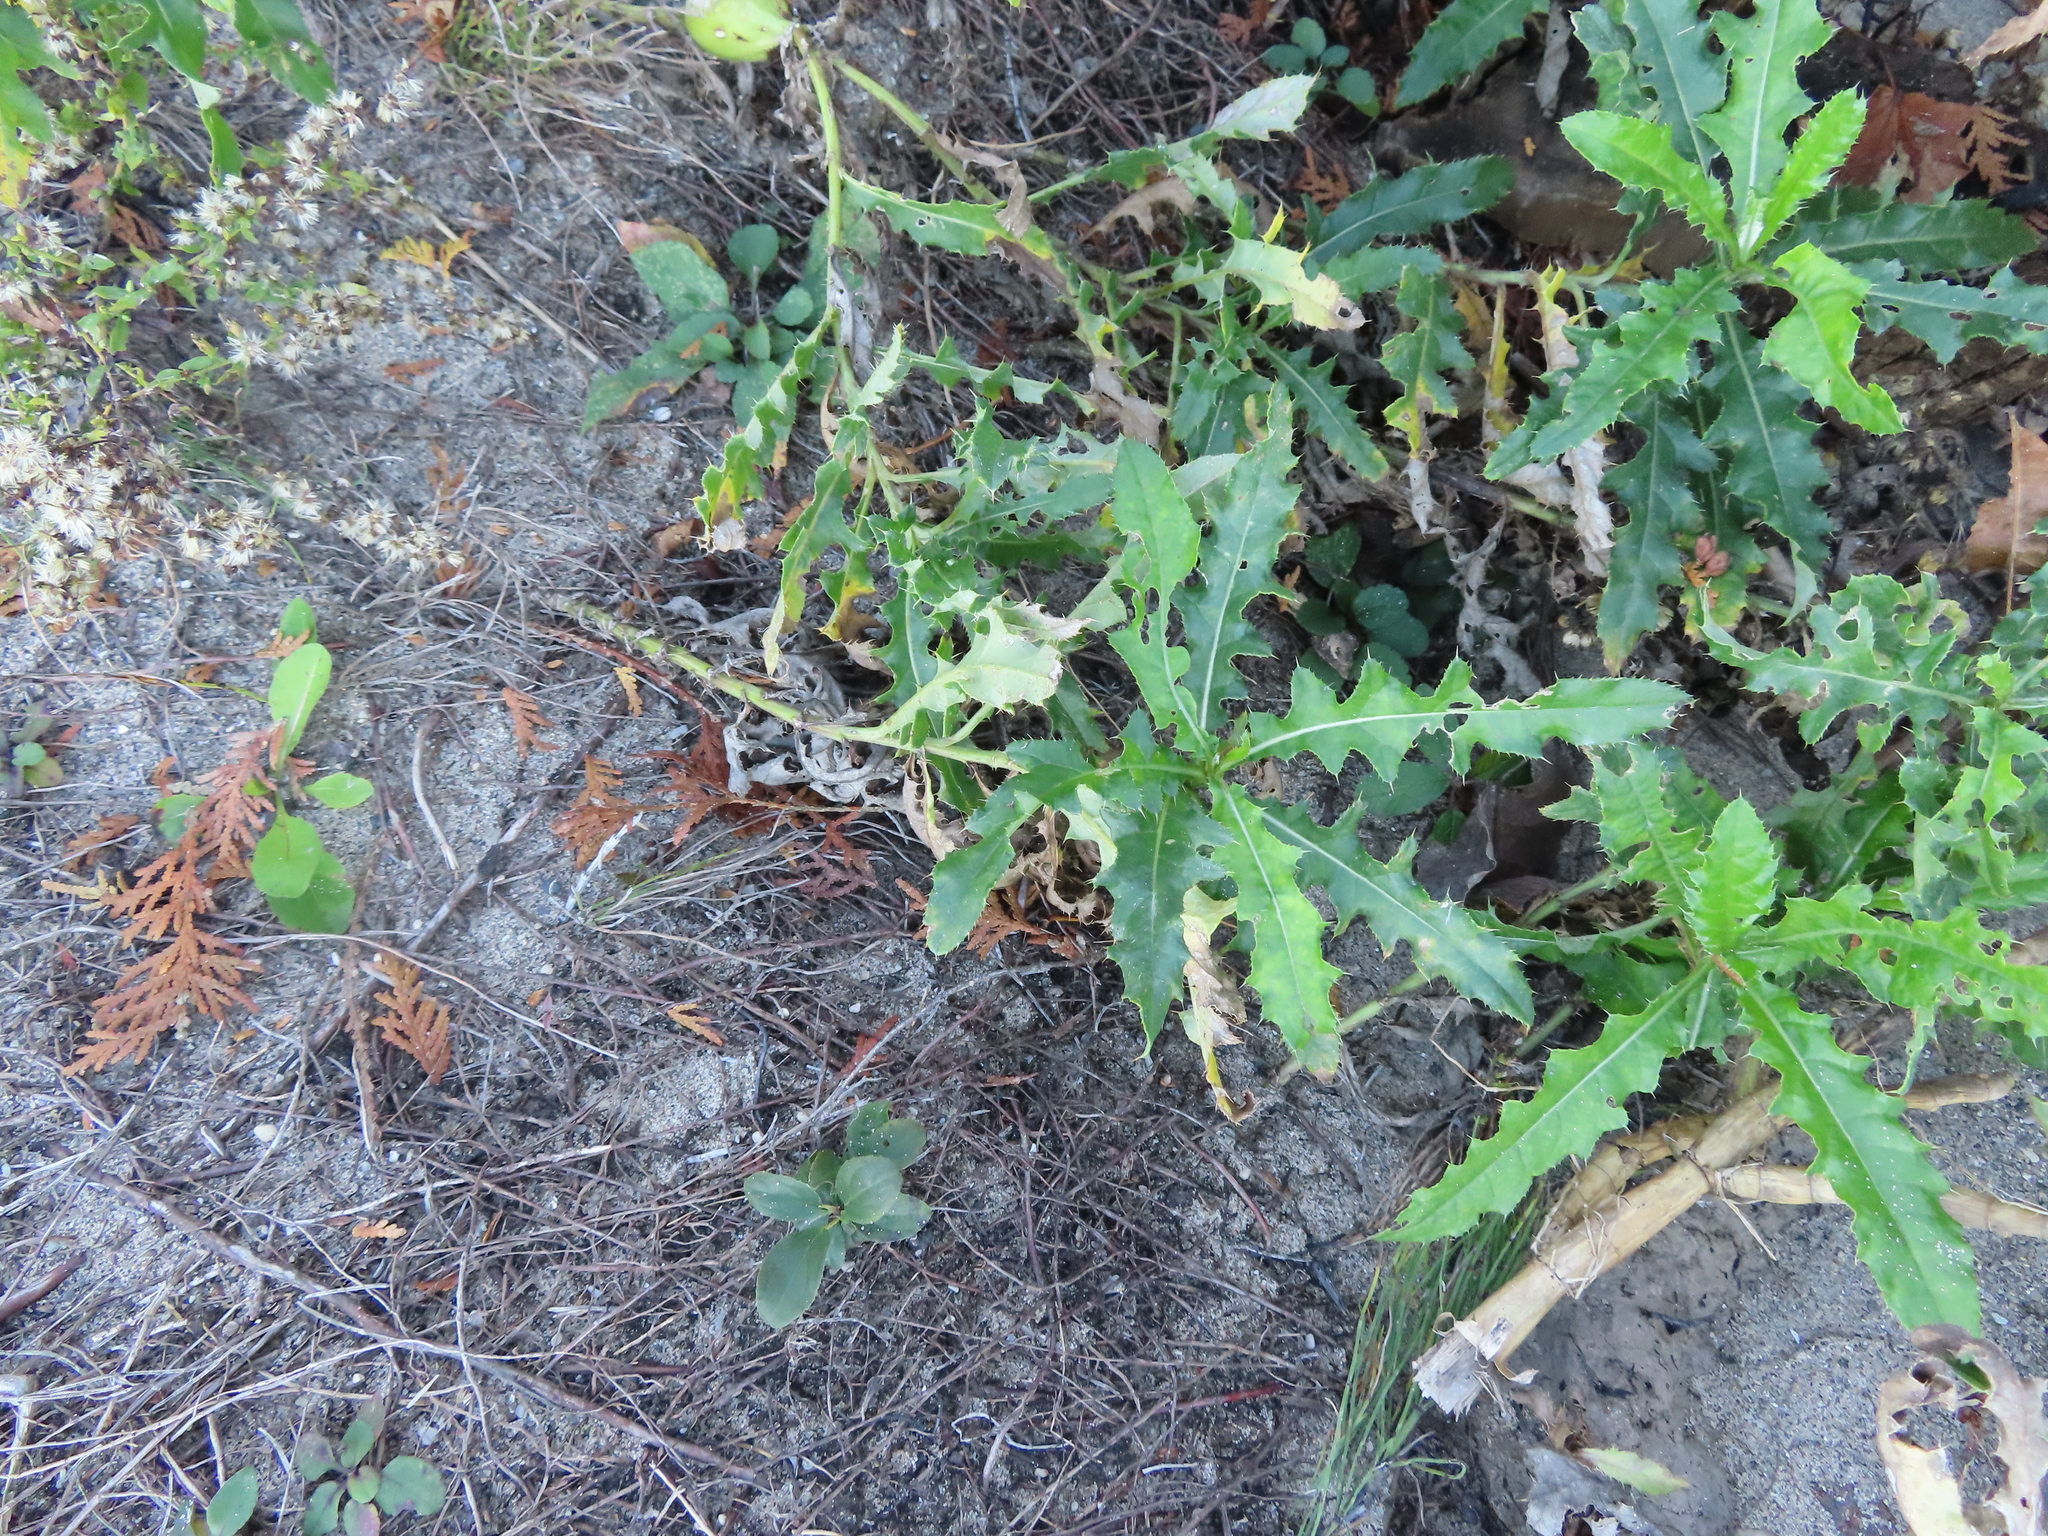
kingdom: Plantae
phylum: Tracheophyta
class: Magnoliopsida
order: Asterales
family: Asteraceae
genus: Cirsium
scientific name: Cirsium arvense
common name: Creeping thistle
